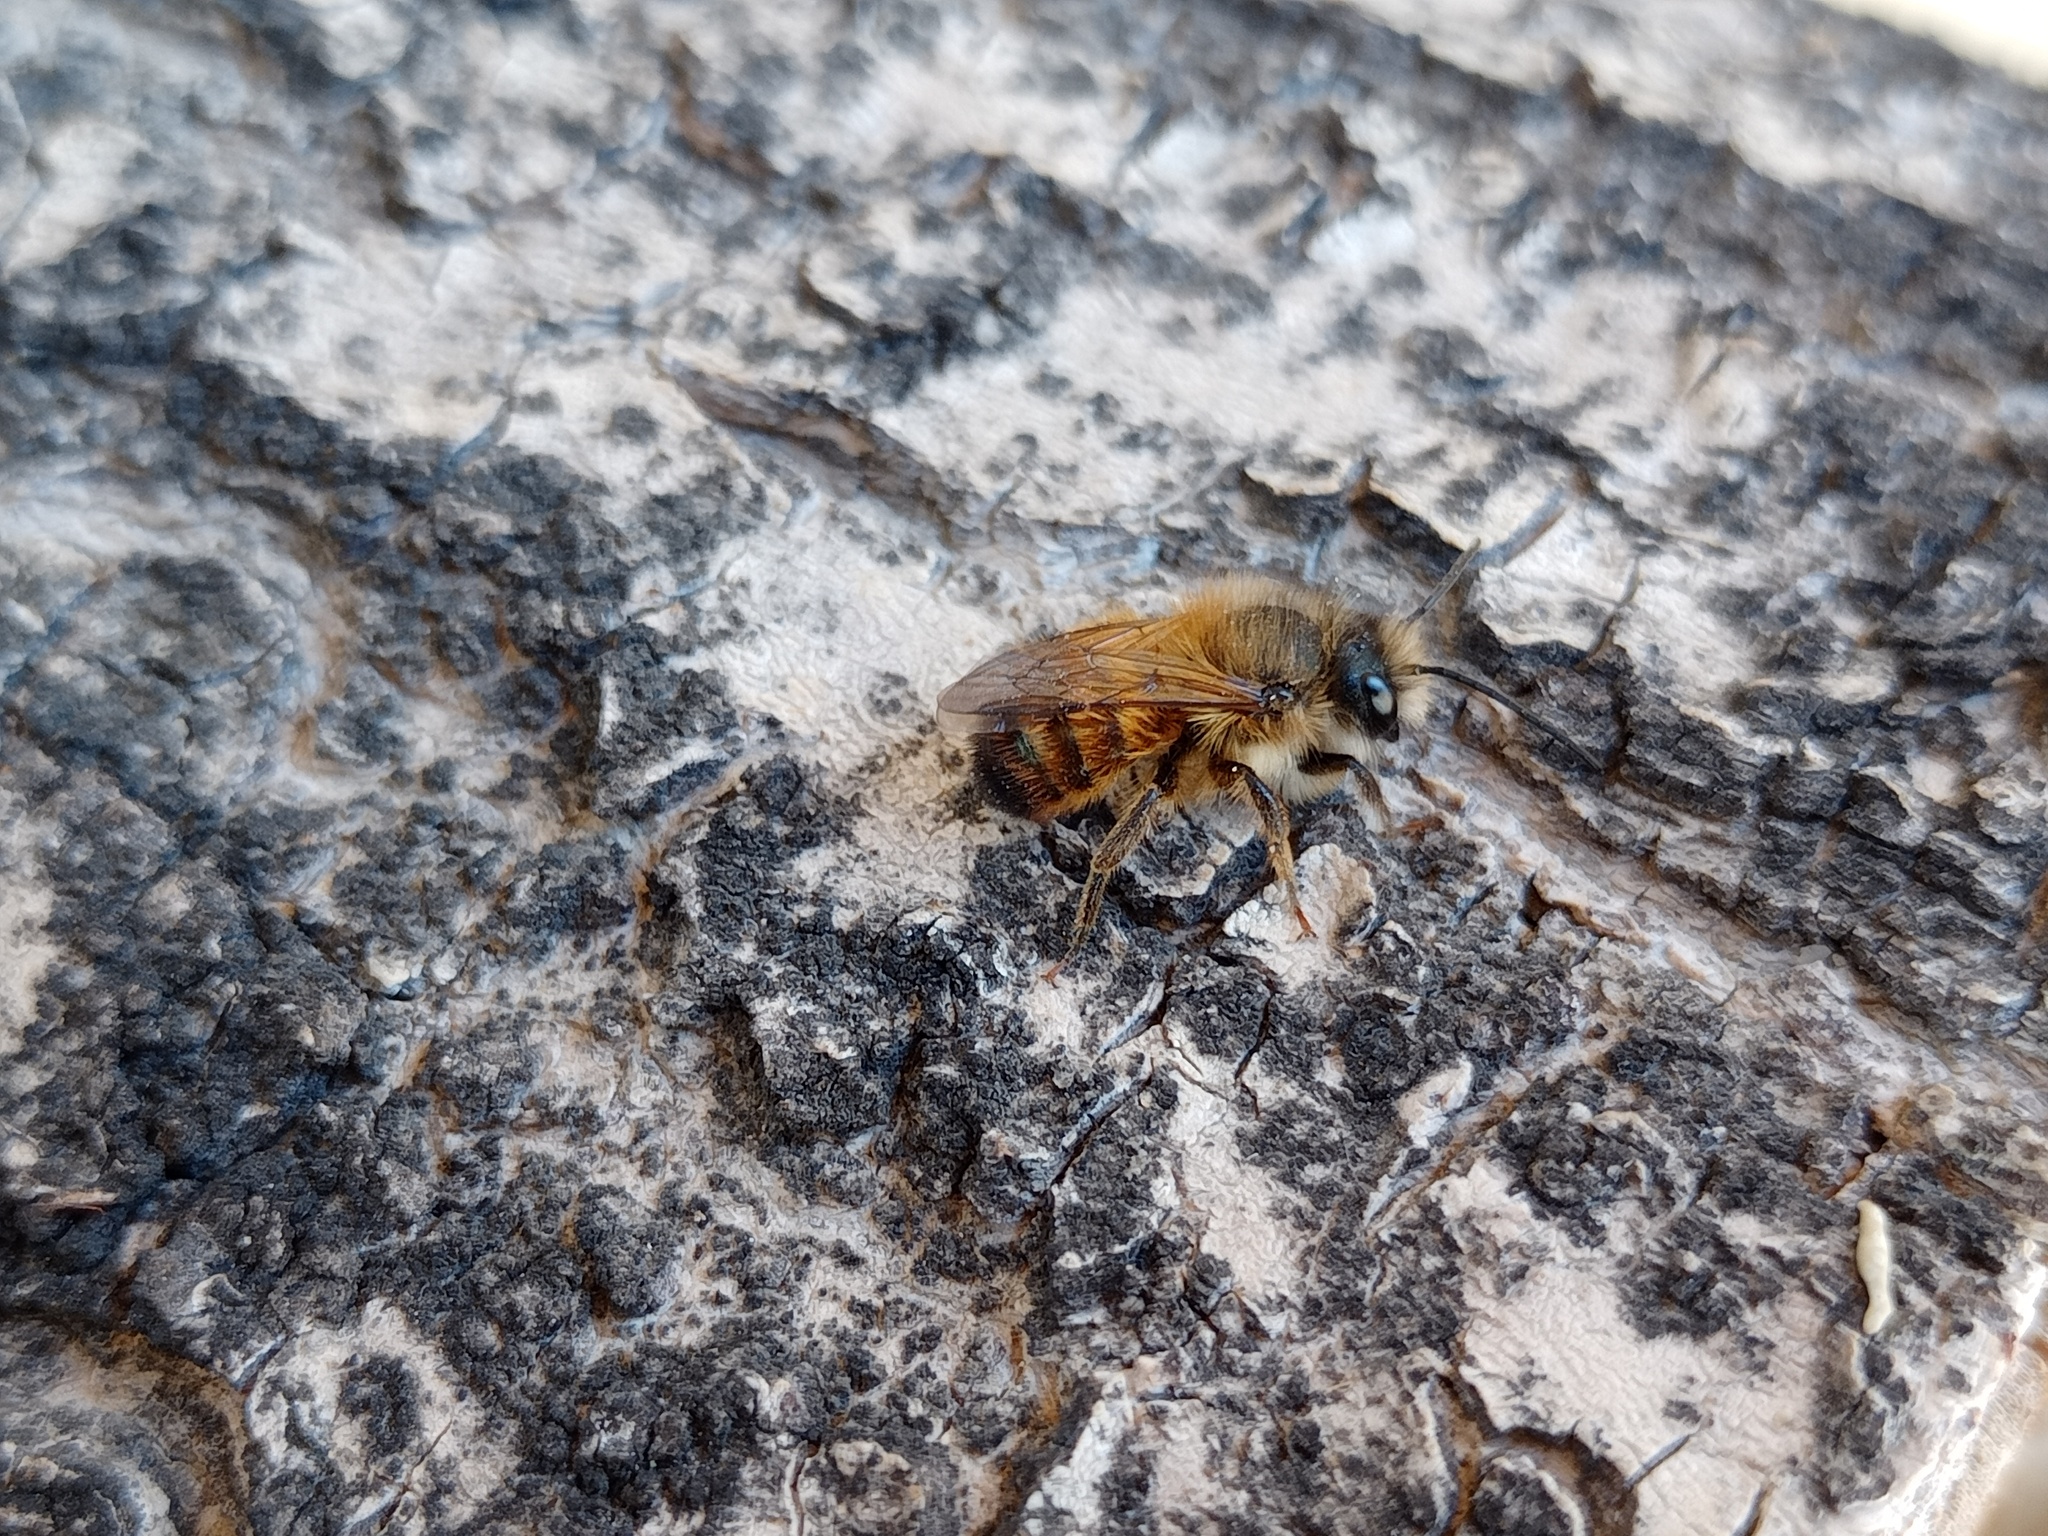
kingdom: Animalia
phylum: Arthropoda
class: Insecta
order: Hymenoptera
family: Megachilidae
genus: Osmia
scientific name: Osmia bicornis
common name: Red mason bee
